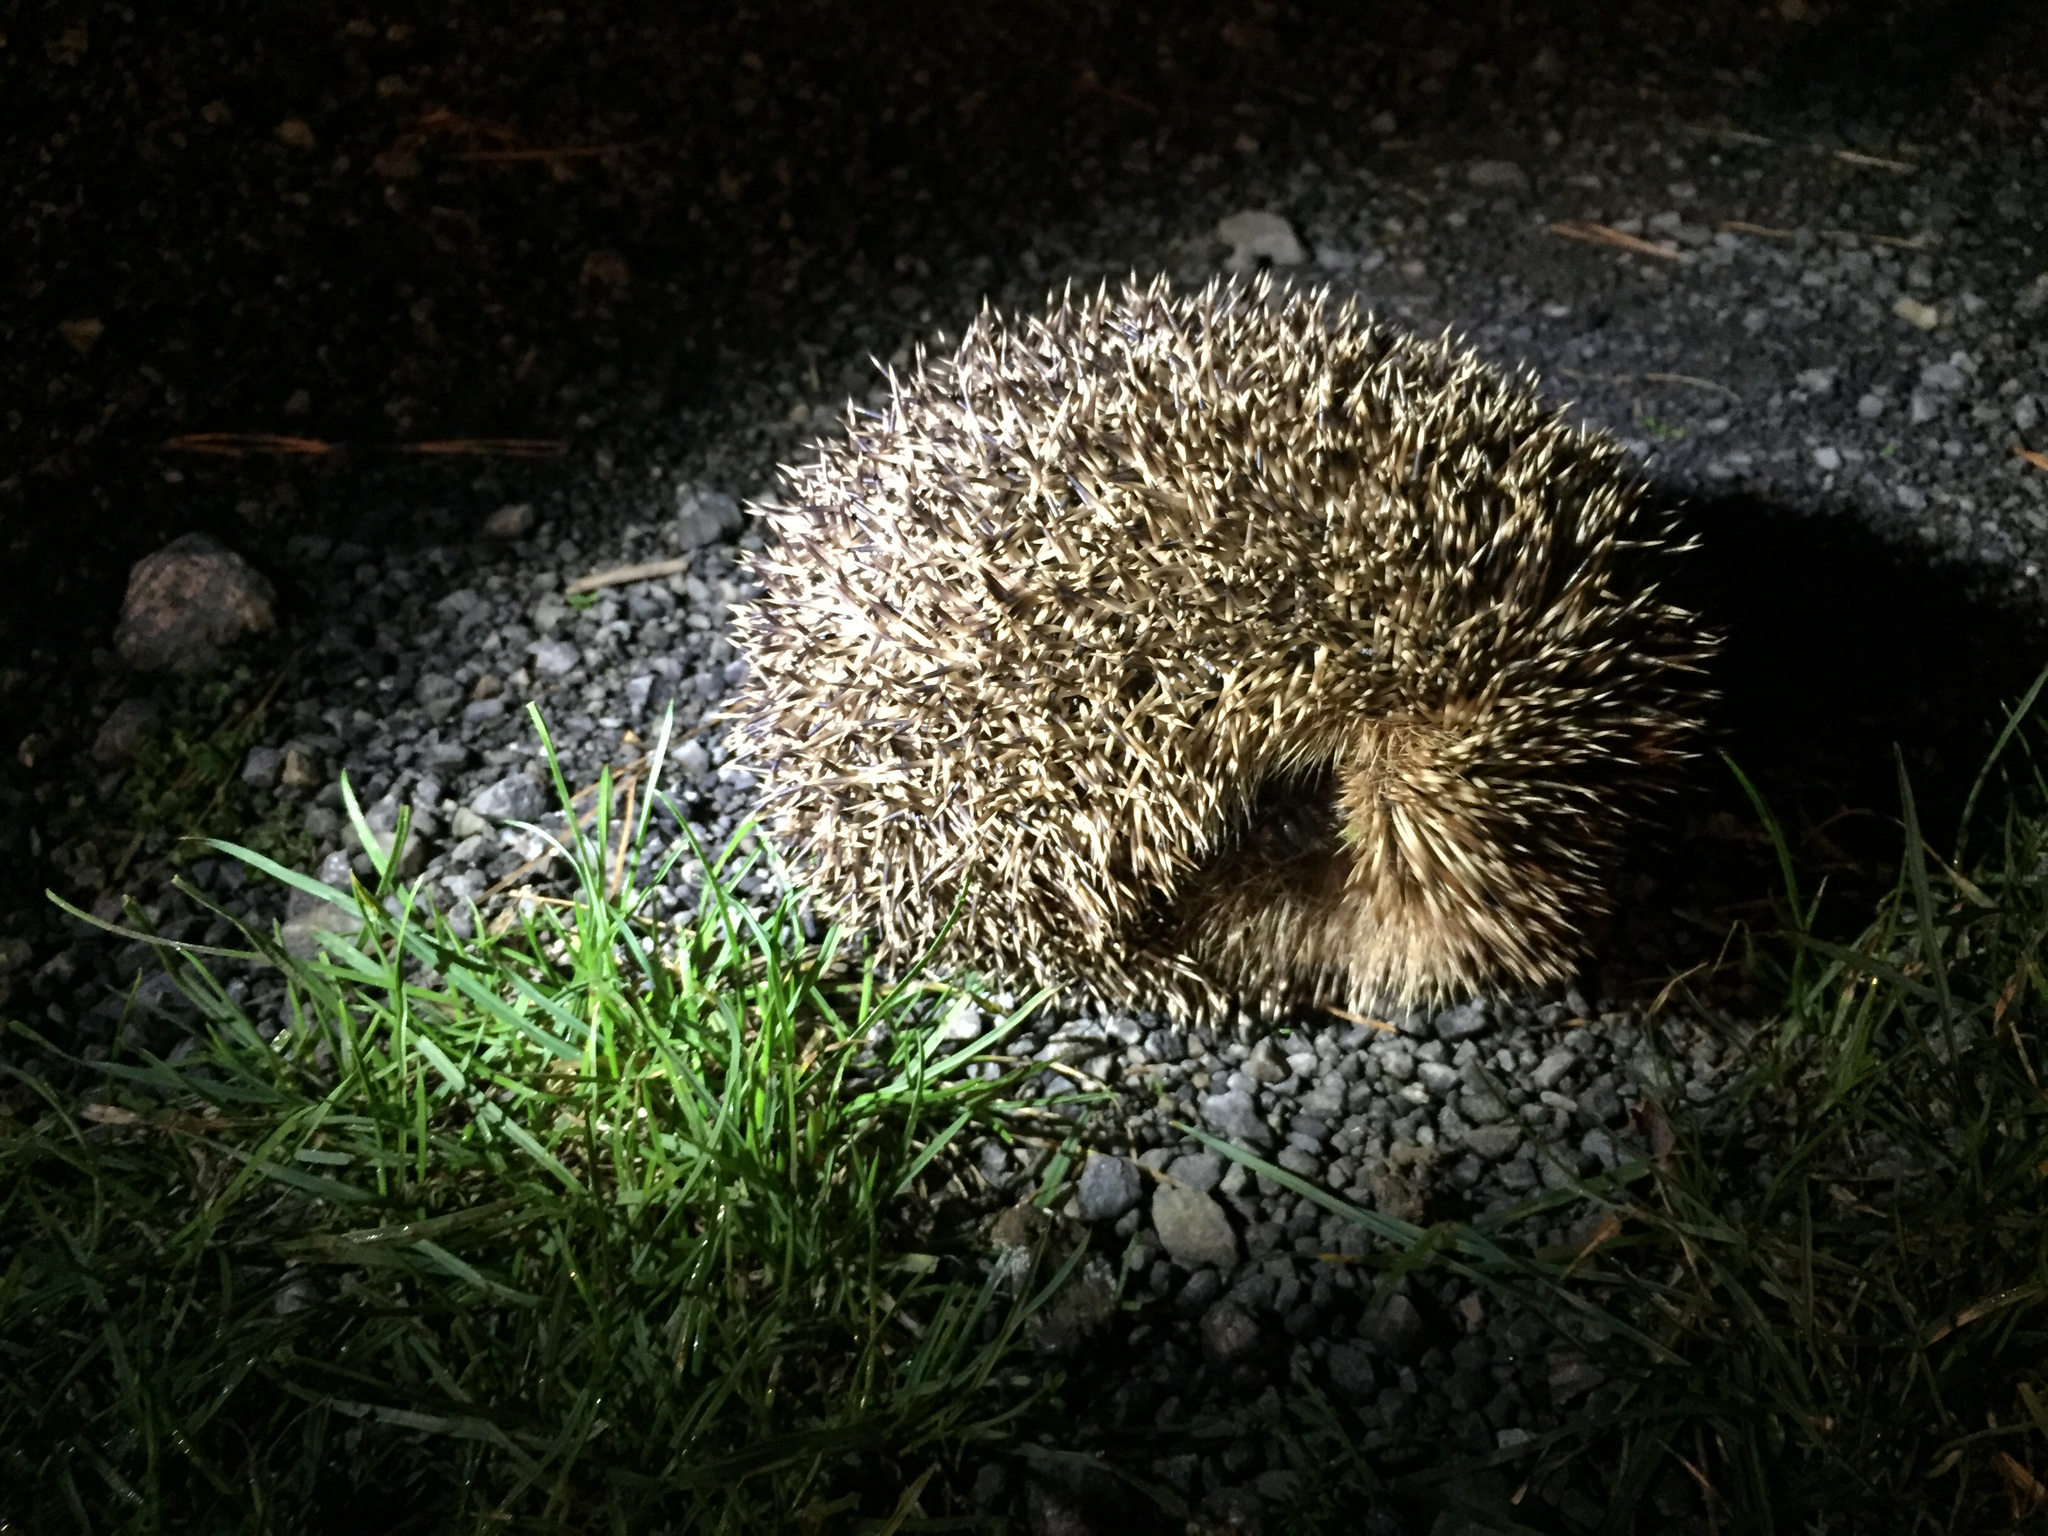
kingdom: Animalia
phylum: Chordata
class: Mammalia
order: Erinaceomorpha
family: Erinaceidae
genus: Erinaceus
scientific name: Erinaceus europaeus
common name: West european hedgehog
